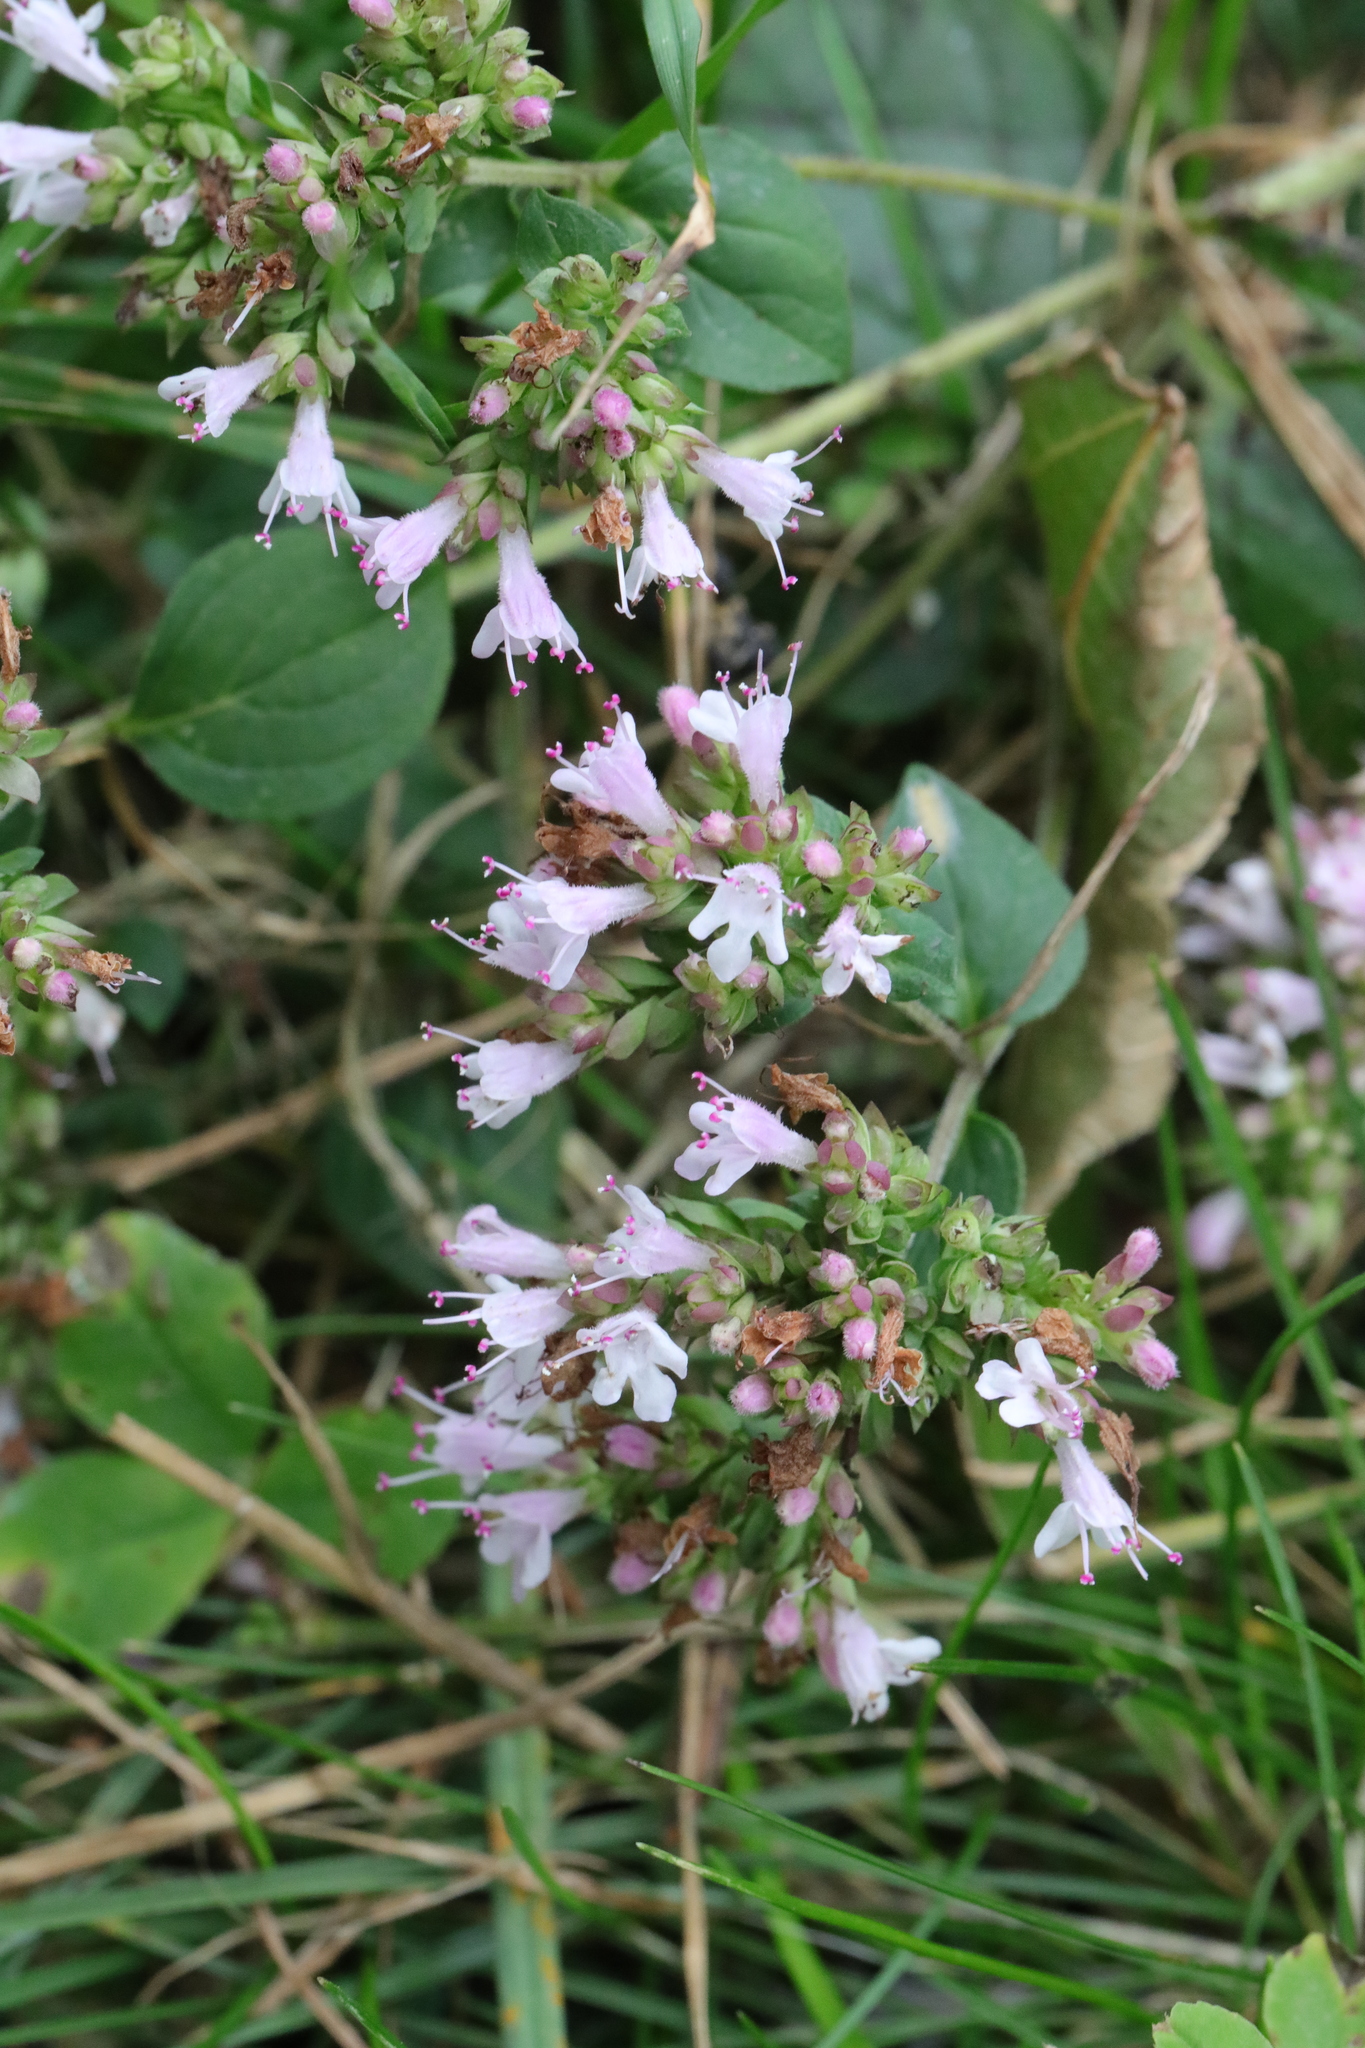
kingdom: Plantae
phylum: Tracheophyta
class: Magnoliopsida
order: Lamiales
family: Lamiaceae
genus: Origanum
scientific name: Origanum vulgare
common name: Wild marjoram
